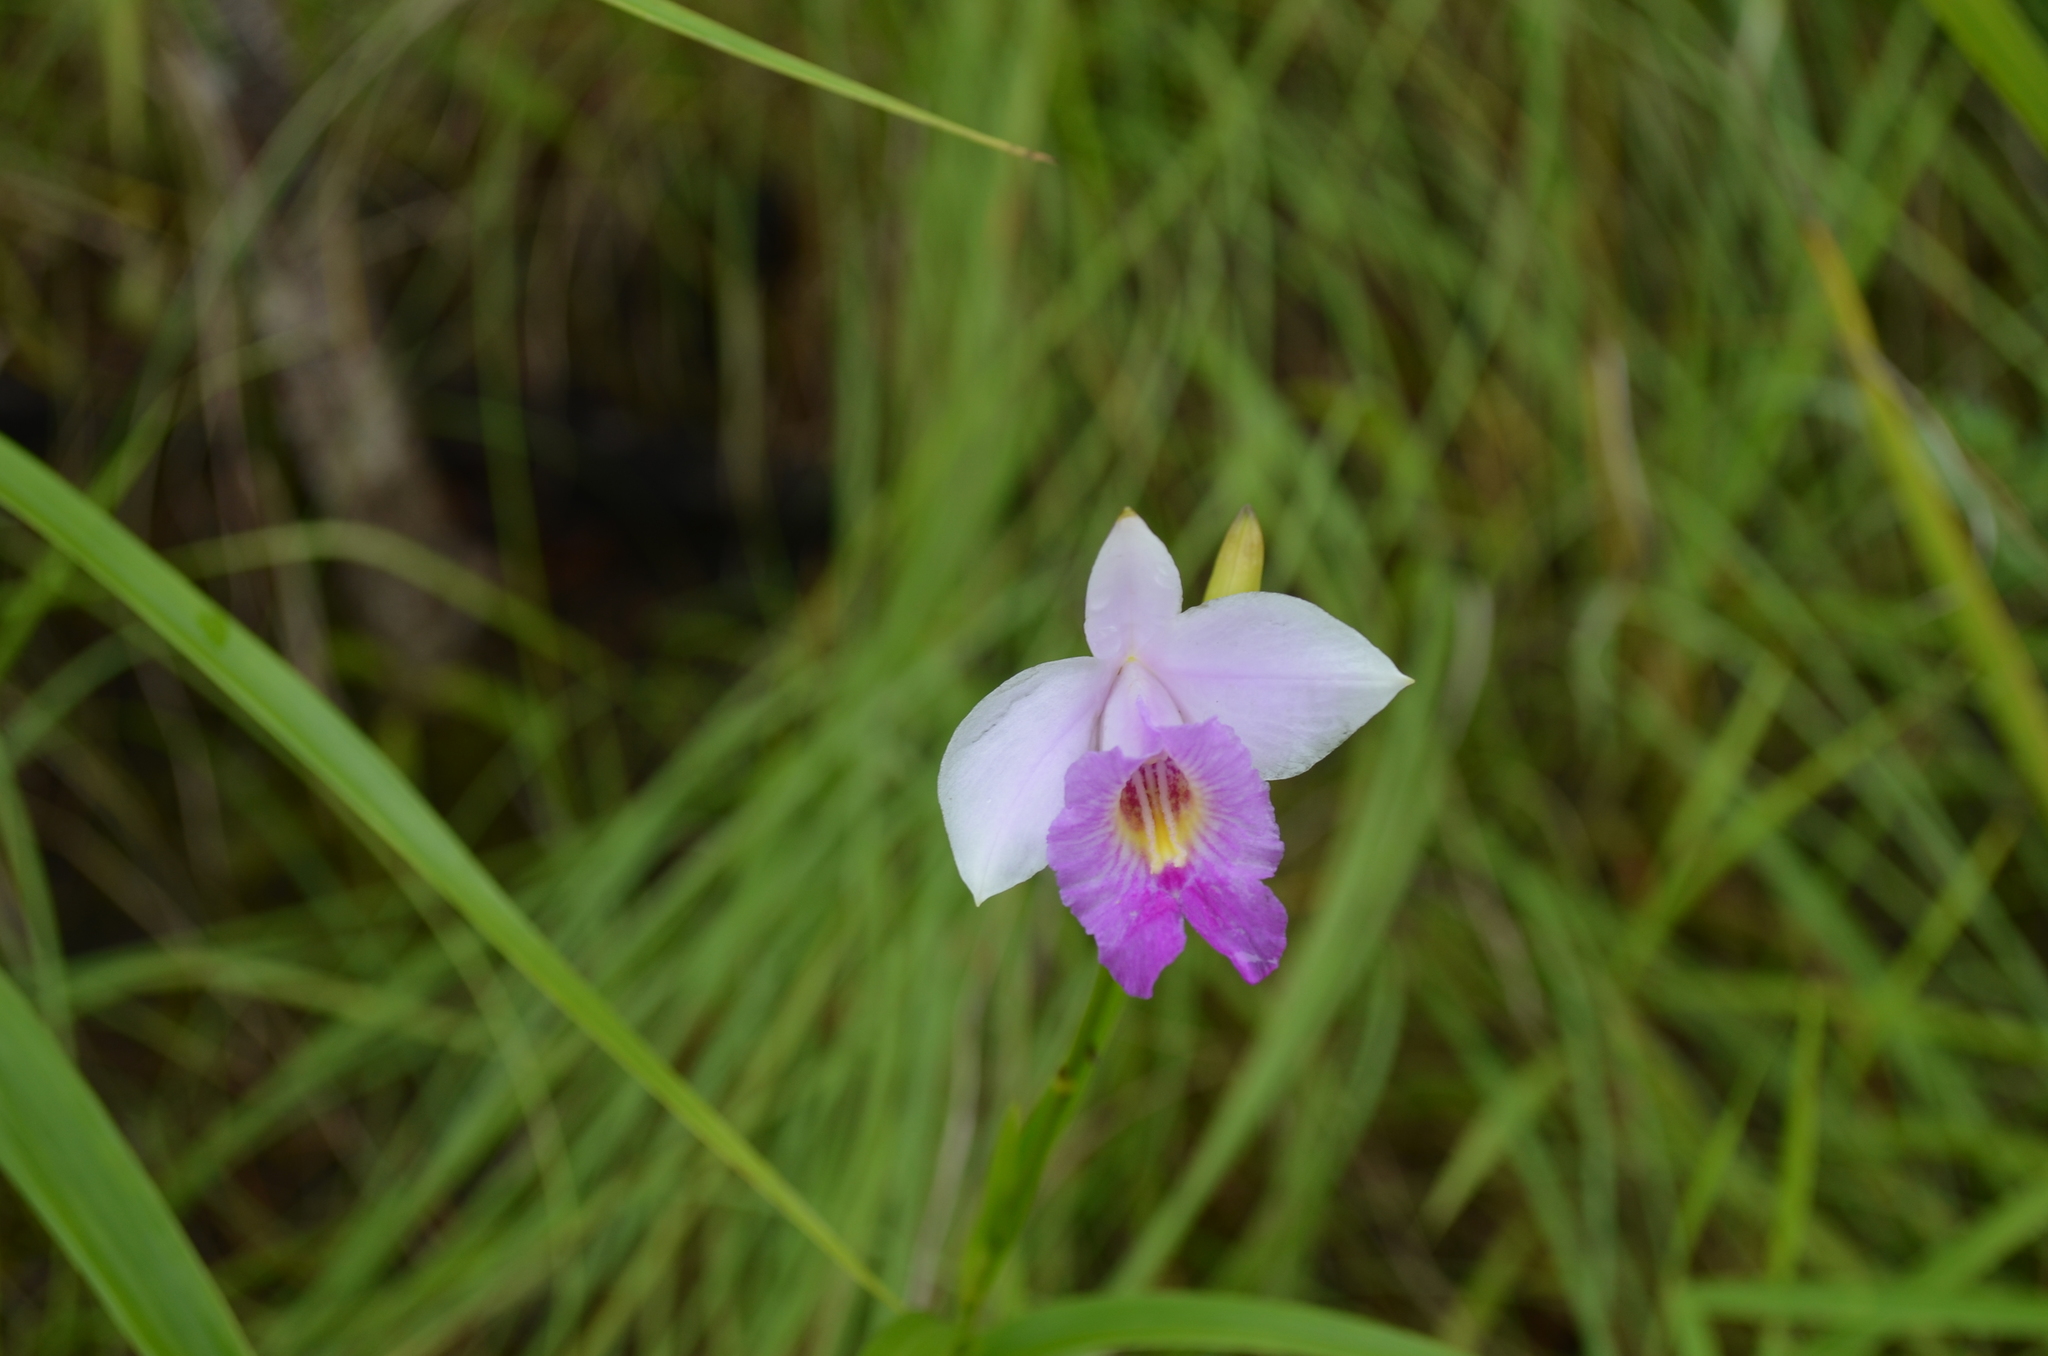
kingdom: Plantae
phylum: Tracheophyta
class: Liliopsida
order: Asparagales
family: Orchidaceae
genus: Arundina
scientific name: Arundina graminifolia
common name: Bamboo orchid
